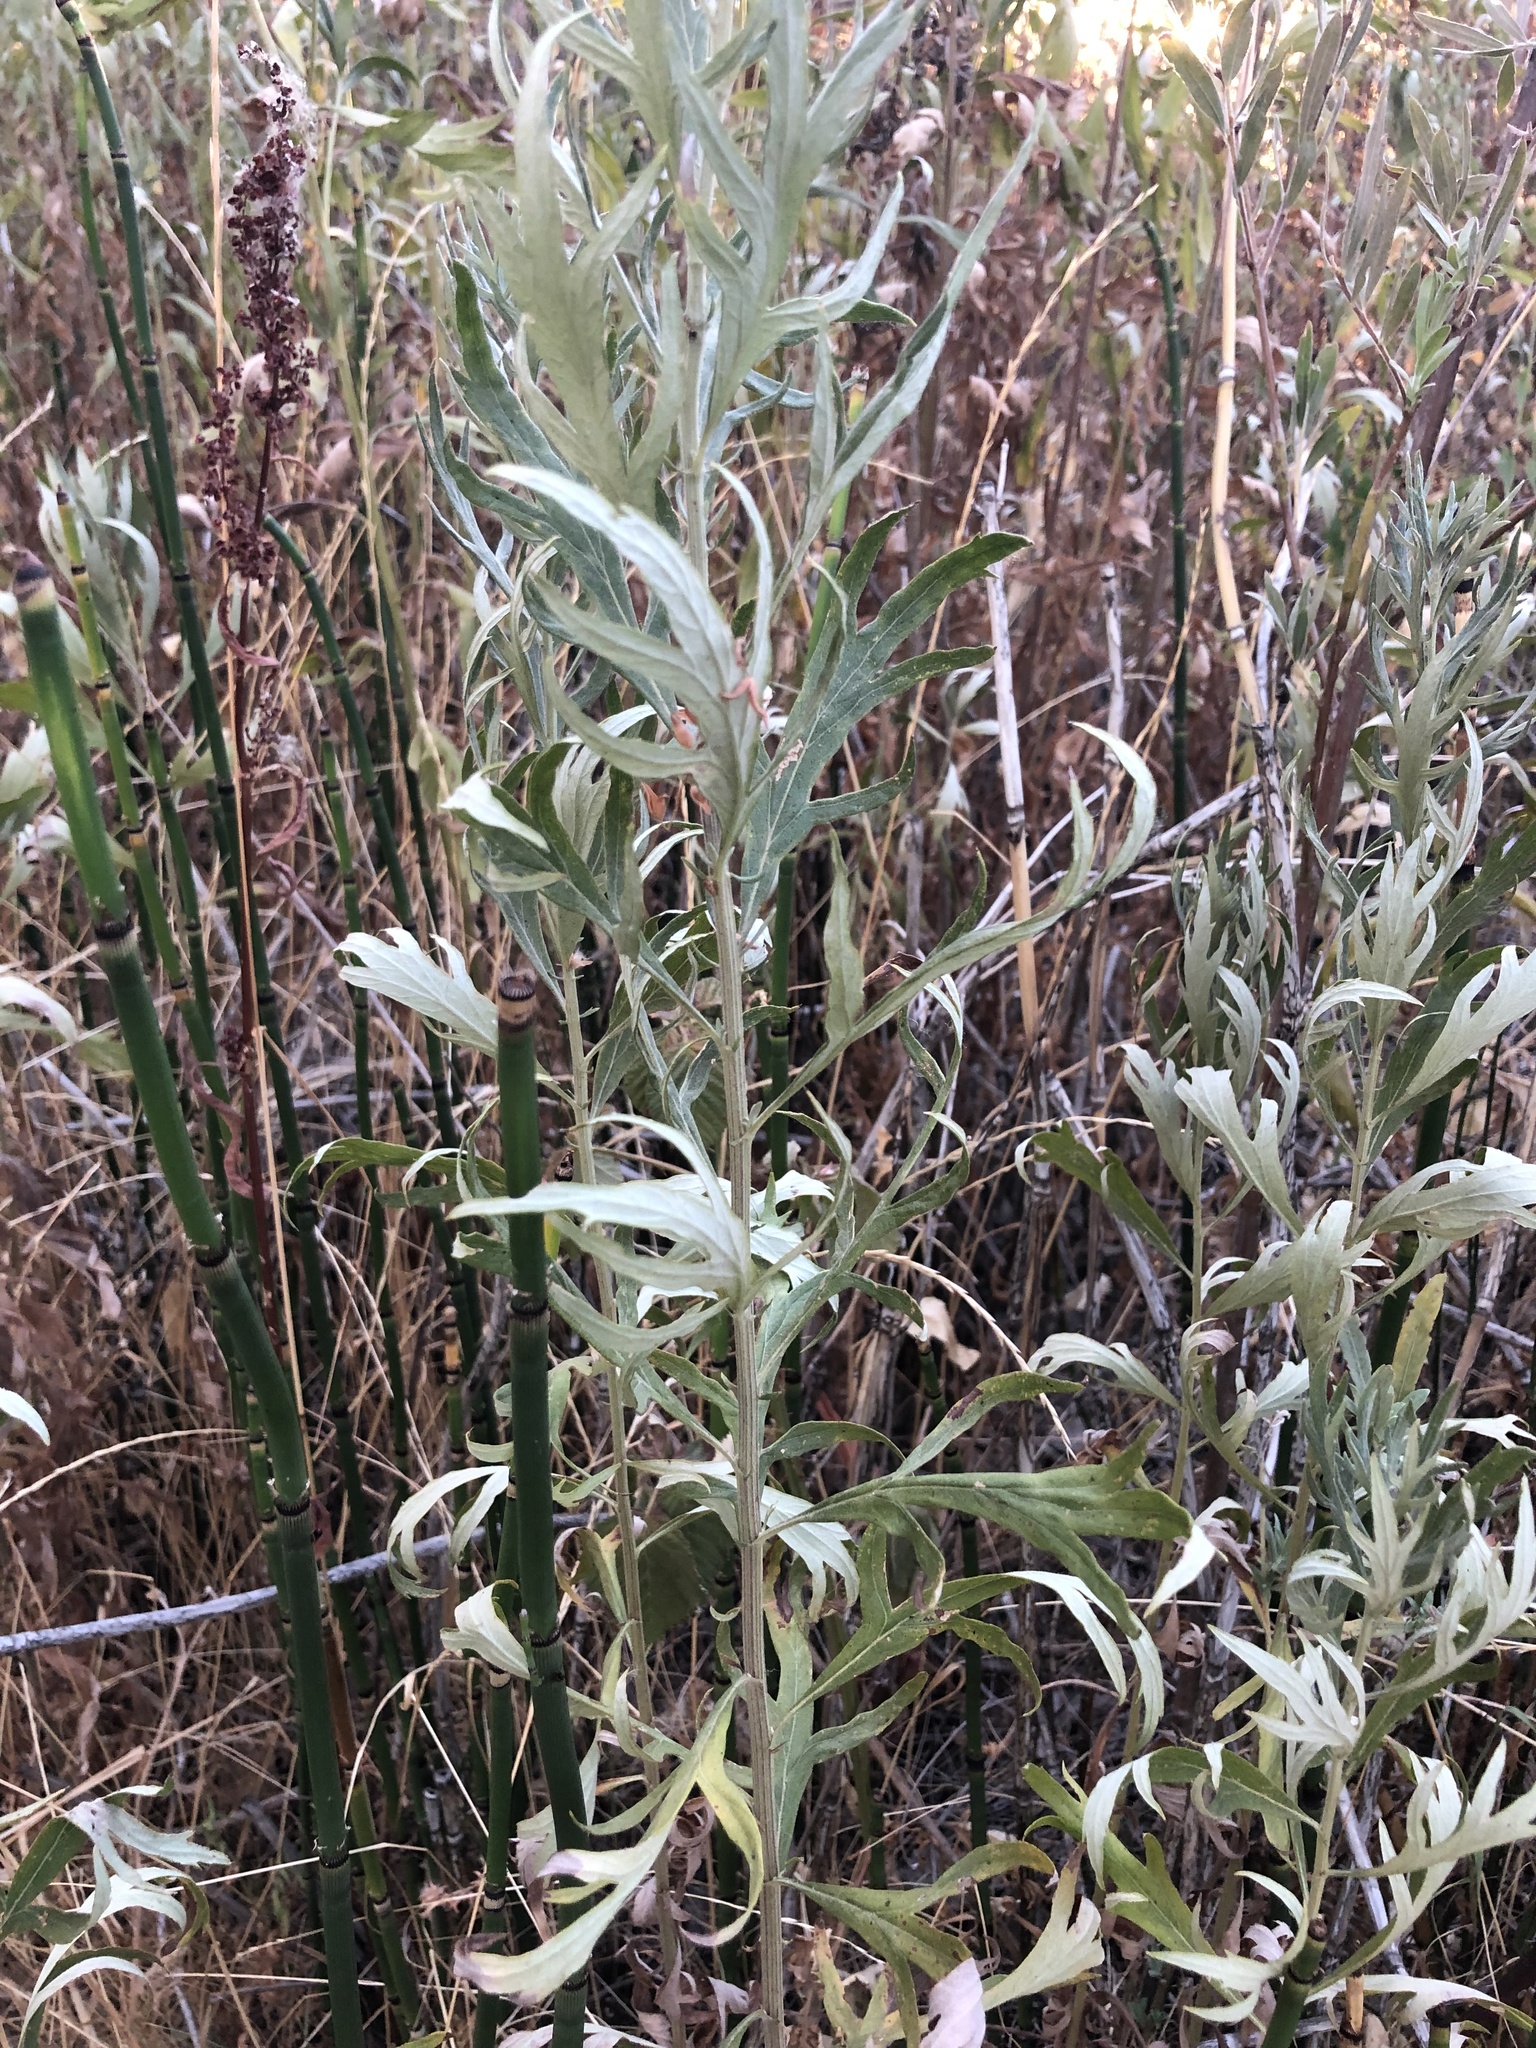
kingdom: Plantae
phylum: Tracheophyta
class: Magnoliopsida
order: Asterales
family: Asteraceae
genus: Artemisia
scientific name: Artemisia douglasiana
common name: Northwest mugwort
